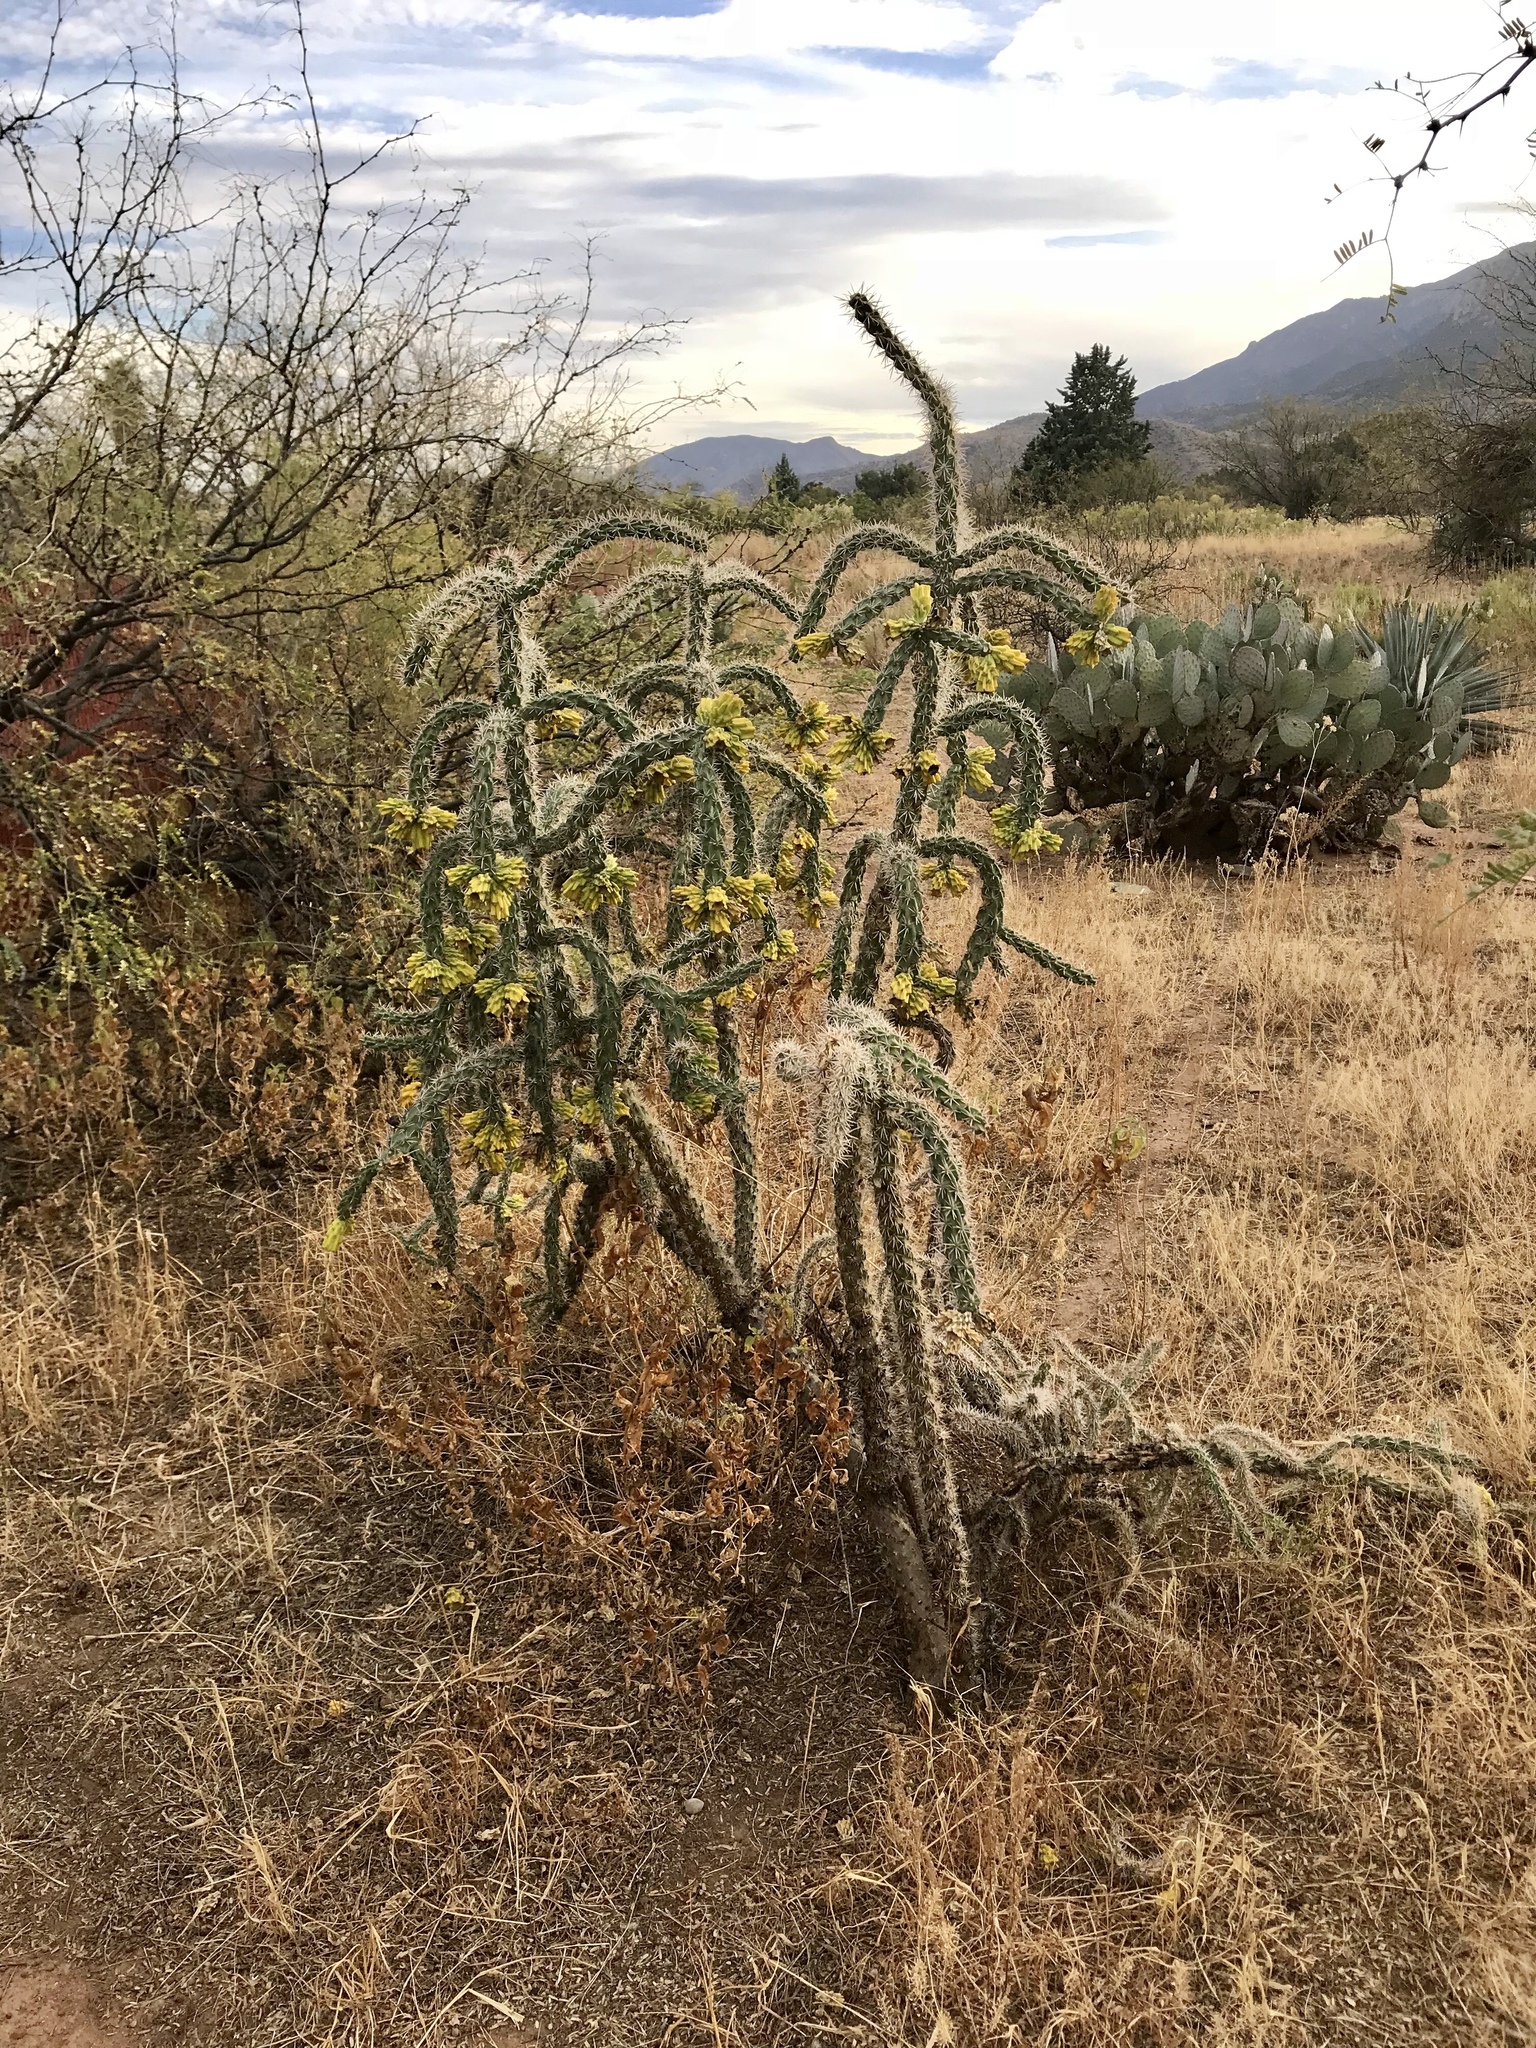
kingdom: Plantae
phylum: Tracheophyta
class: Magnoliopsida
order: Caryophyllales
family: Cactaceae
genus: Cylindropuntia
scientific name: Cylindropuntia imbricata
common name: Candelabrum cactus
